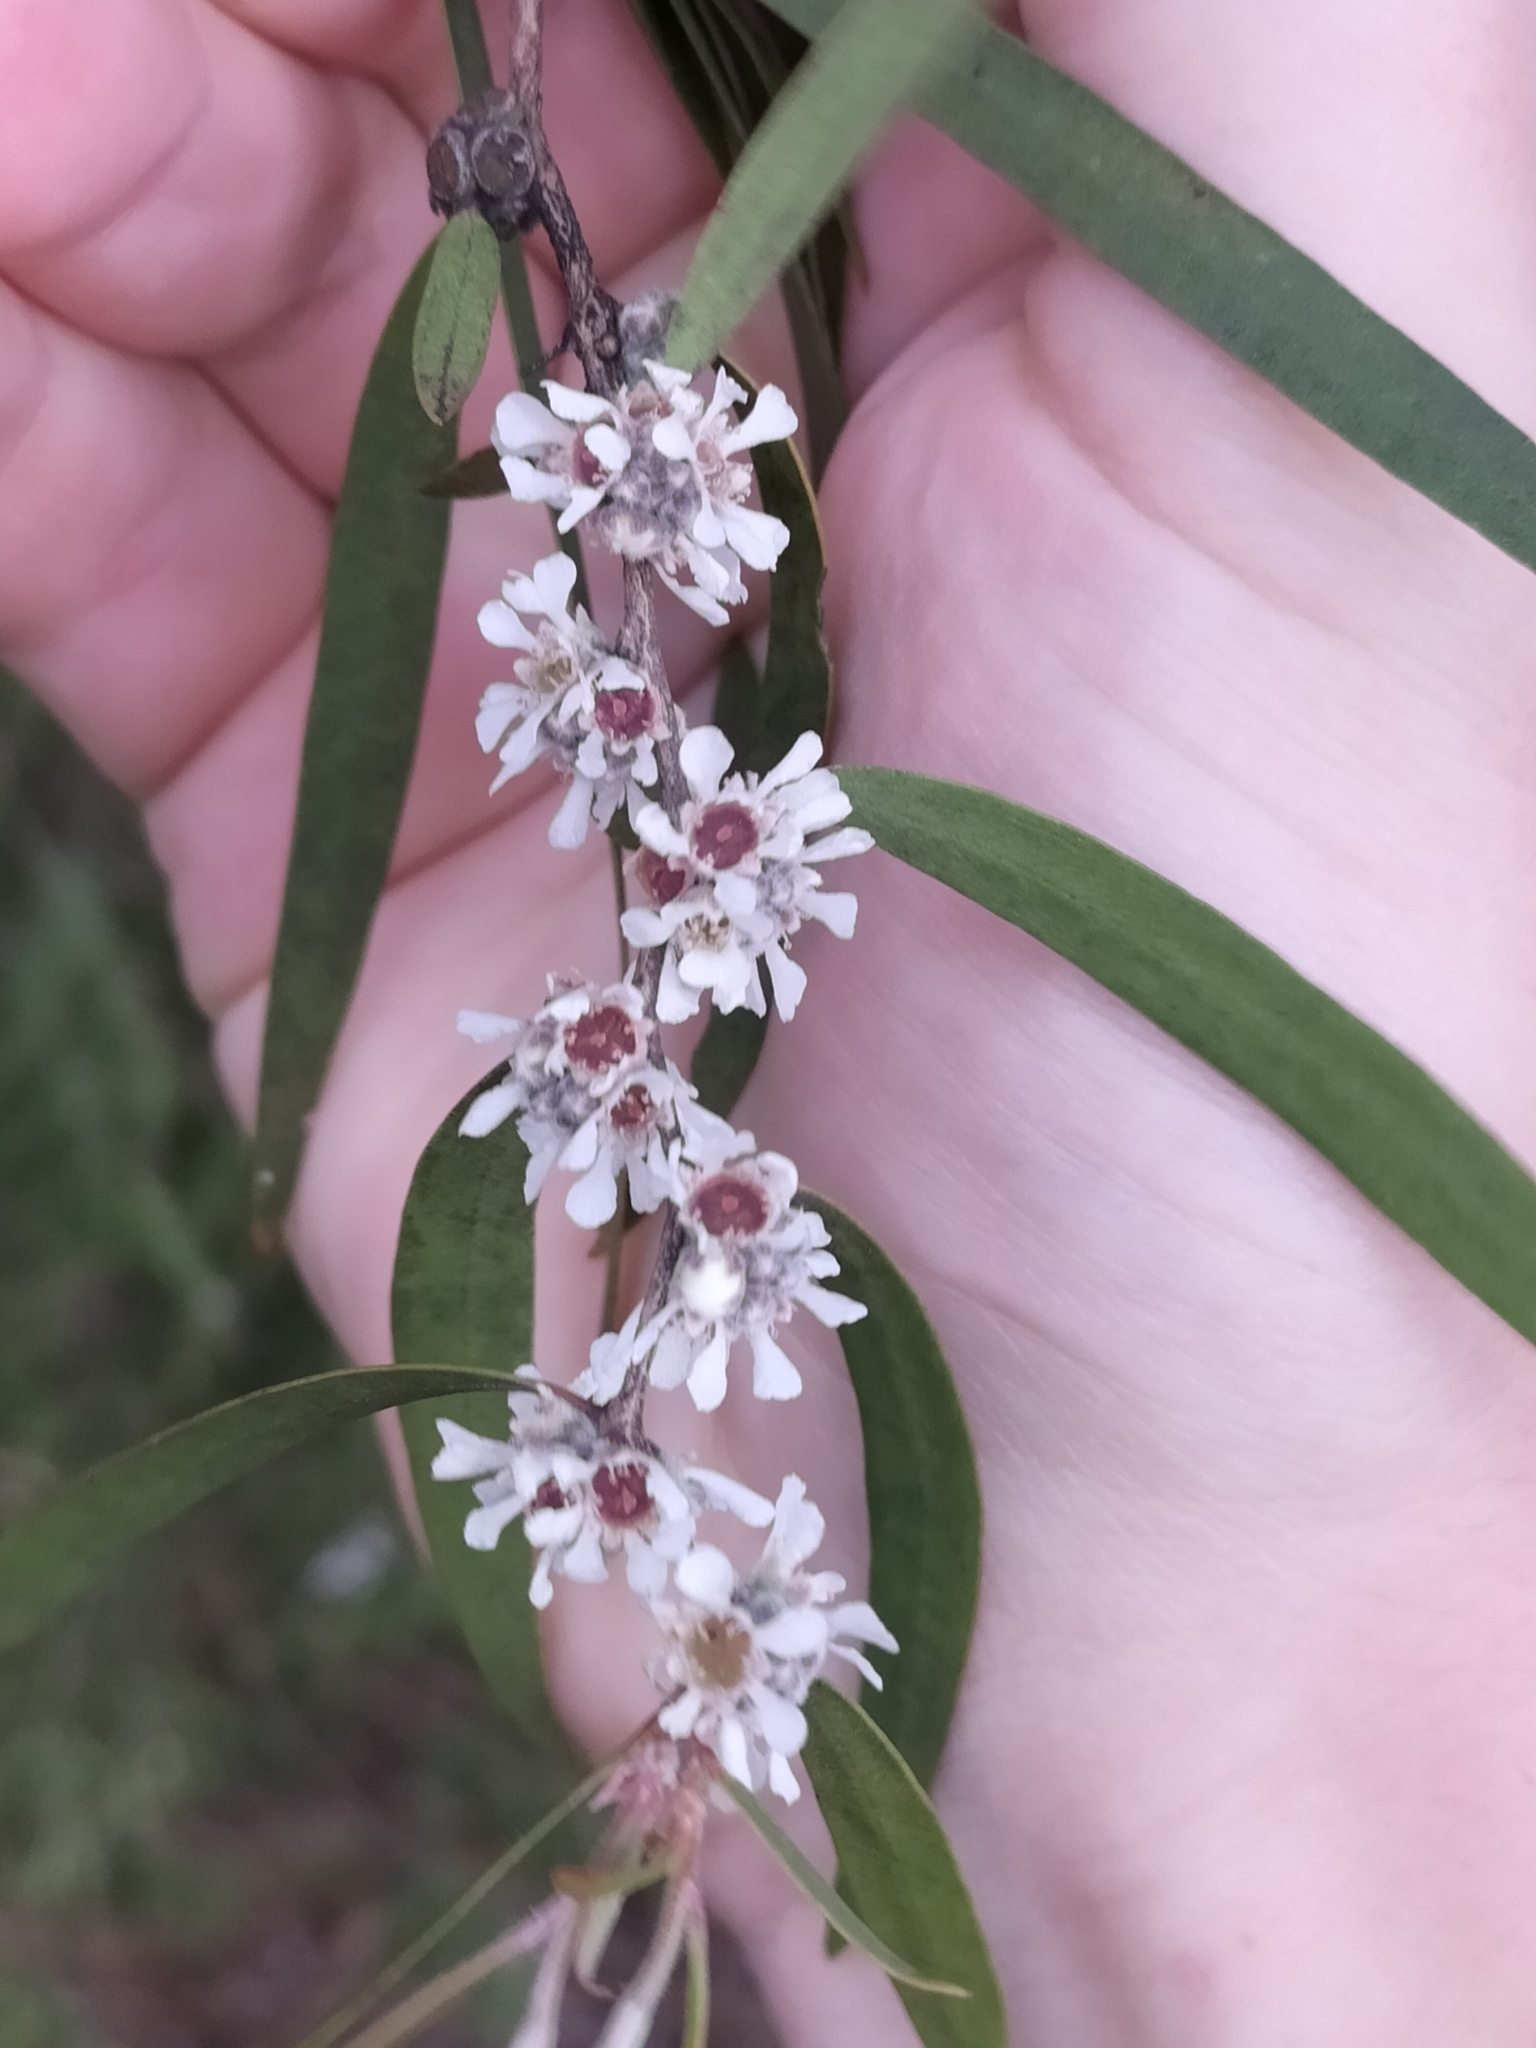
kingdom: Plantae
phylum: Tracheophyta
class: Magnoliopsida
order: Myrtales
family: Myrtaceae
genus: Agonis
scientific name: Agonis flexuosa
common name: Willow myrtle
